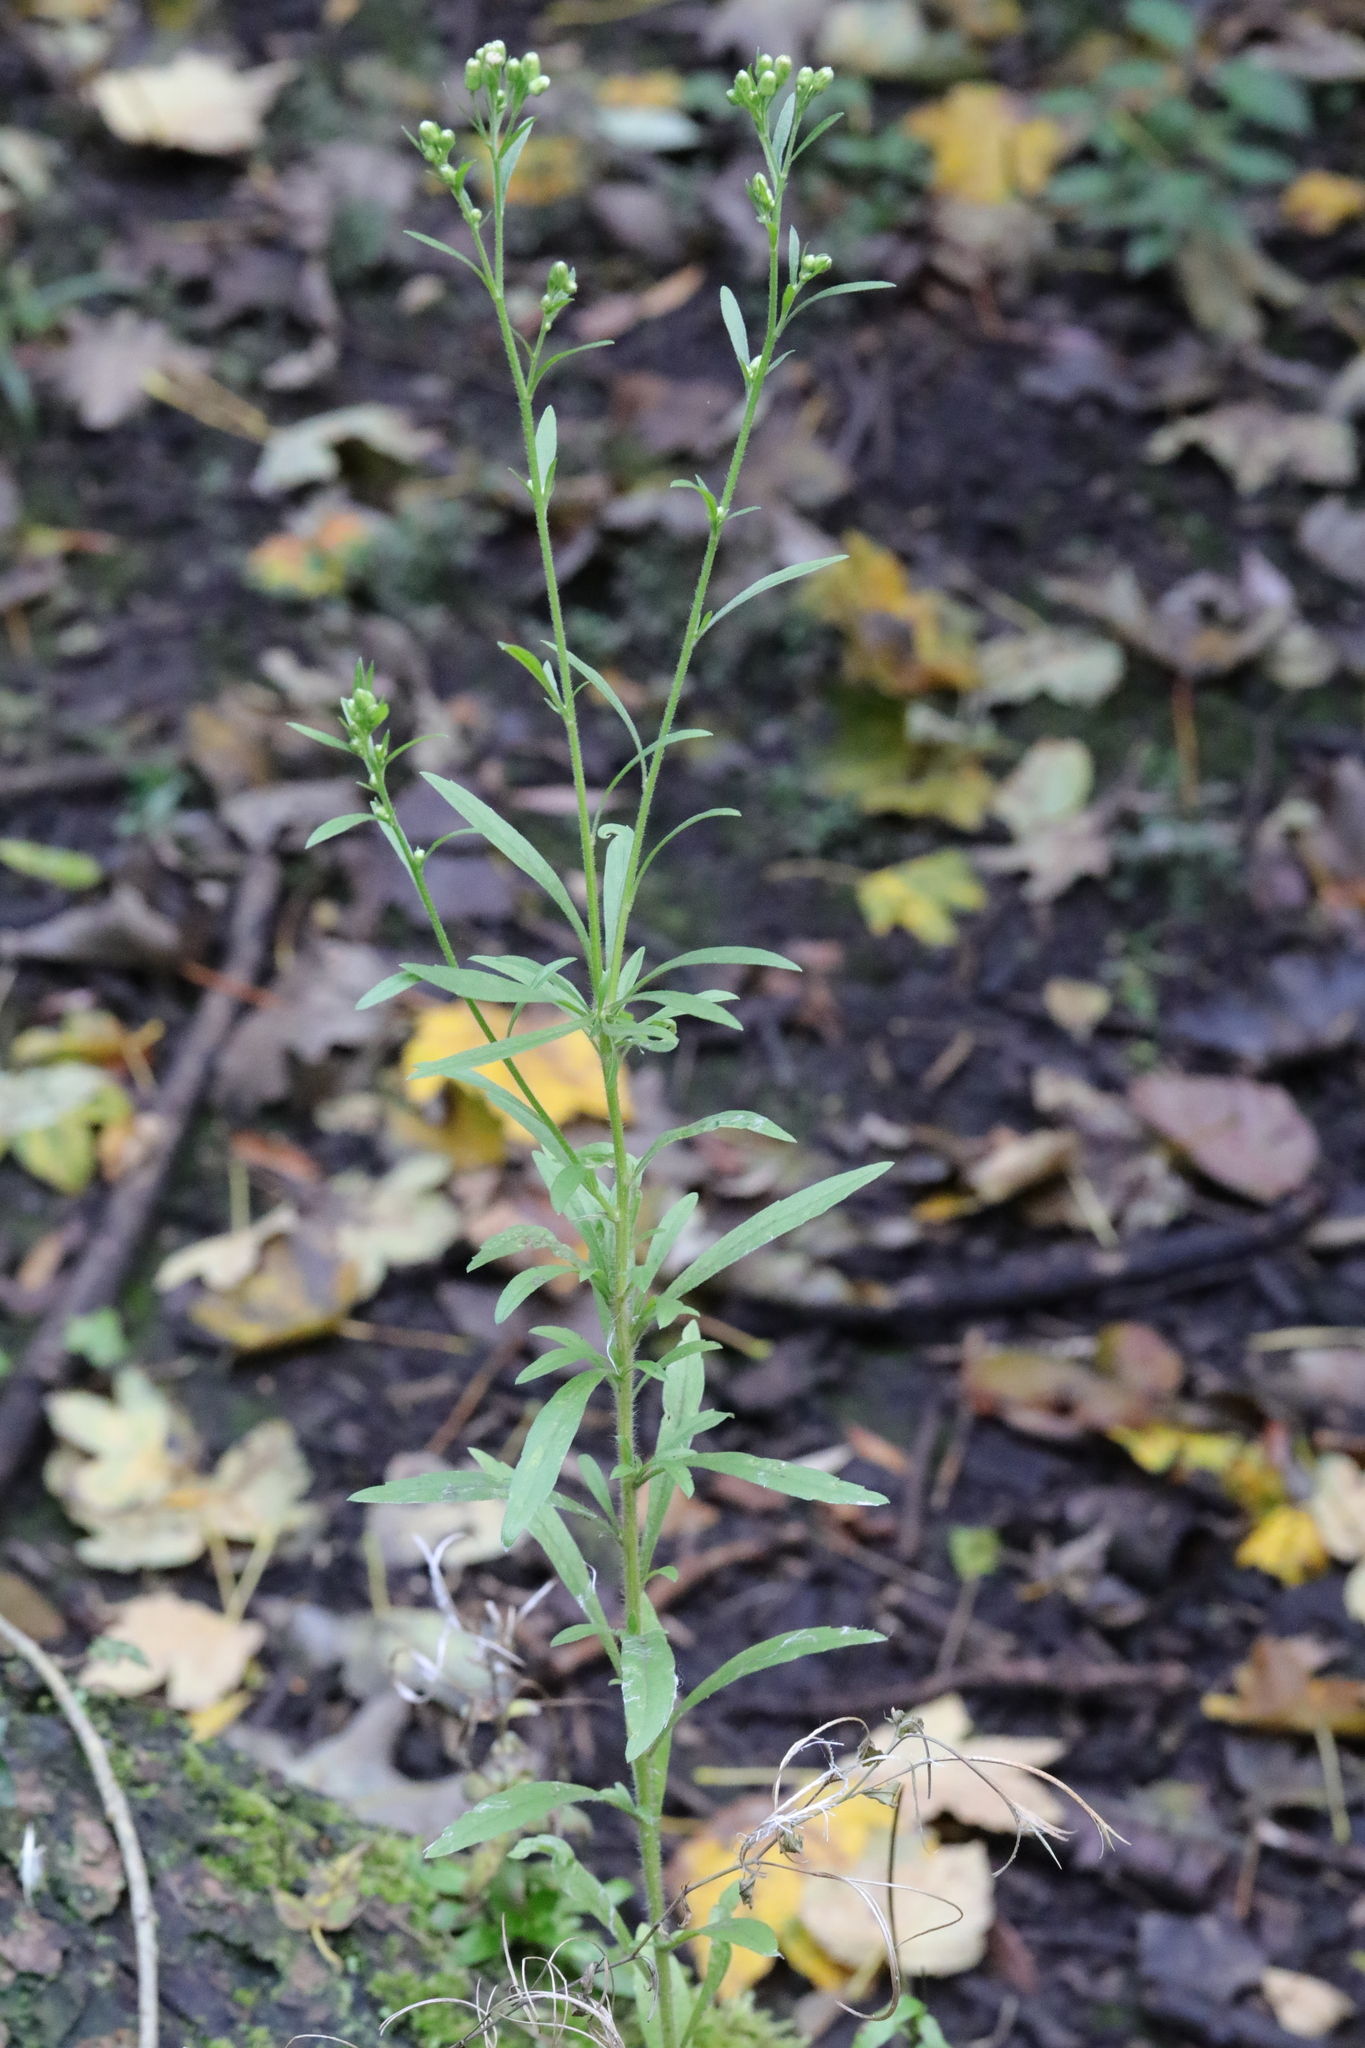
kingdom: Plantae
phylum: Tracheophyta
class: Magnoliopsida
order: Asterales
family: Asteraceae
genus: Erigeron
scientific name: Erigeron canadensis
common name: Canadian fleabane
